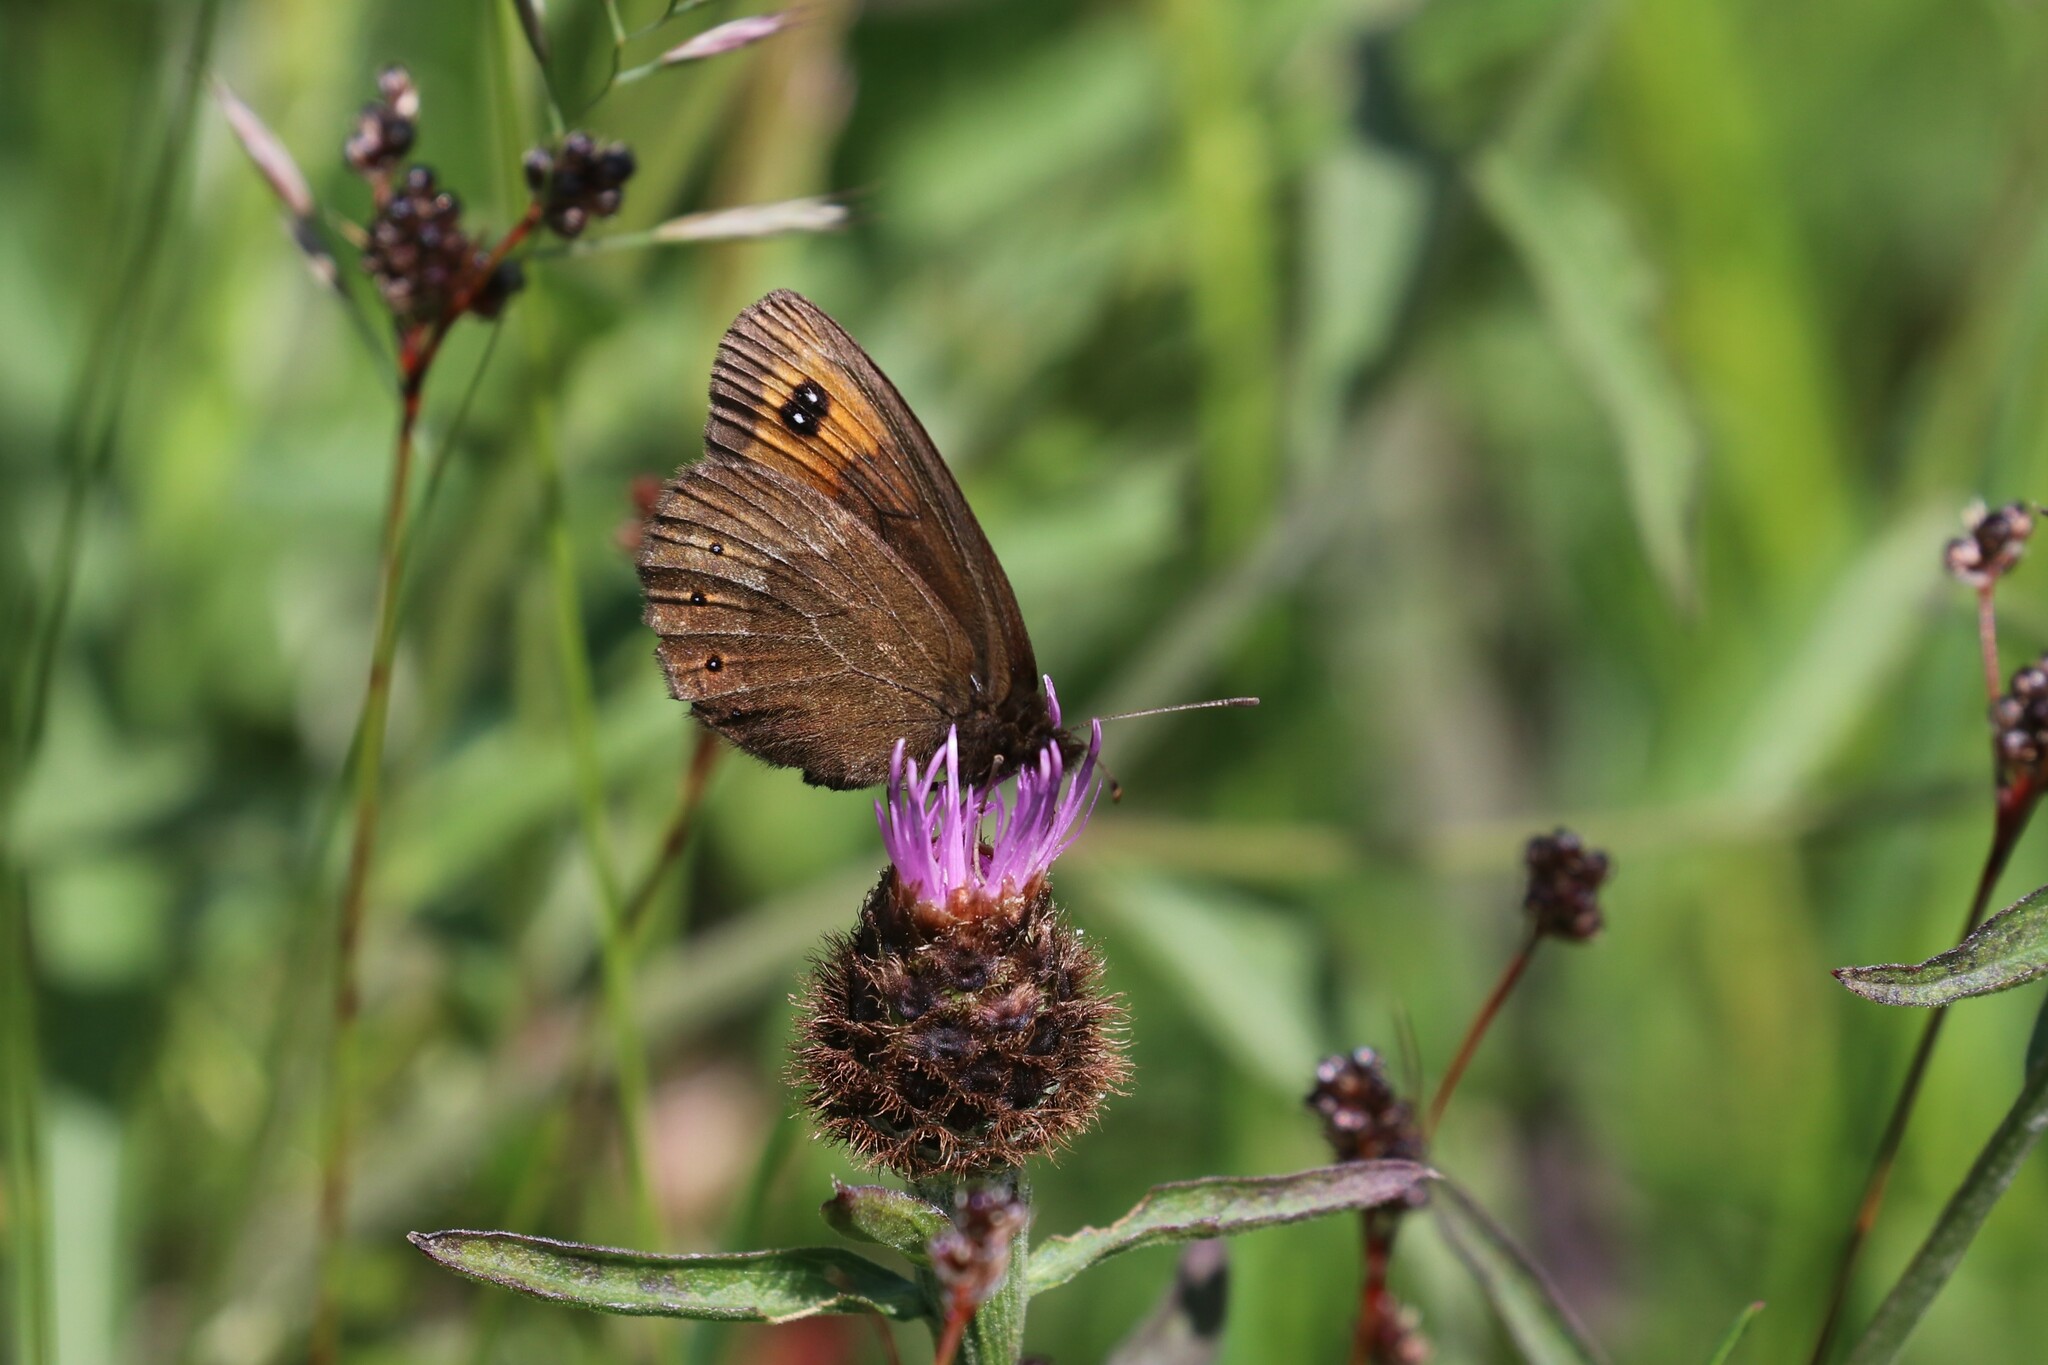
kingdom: Animalia
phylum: Arthropoda
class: Insecta
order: Lepidoptera
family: Nymphalidae
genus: Erebia
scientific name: Erebia meolans
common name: Piedmont ringlet
